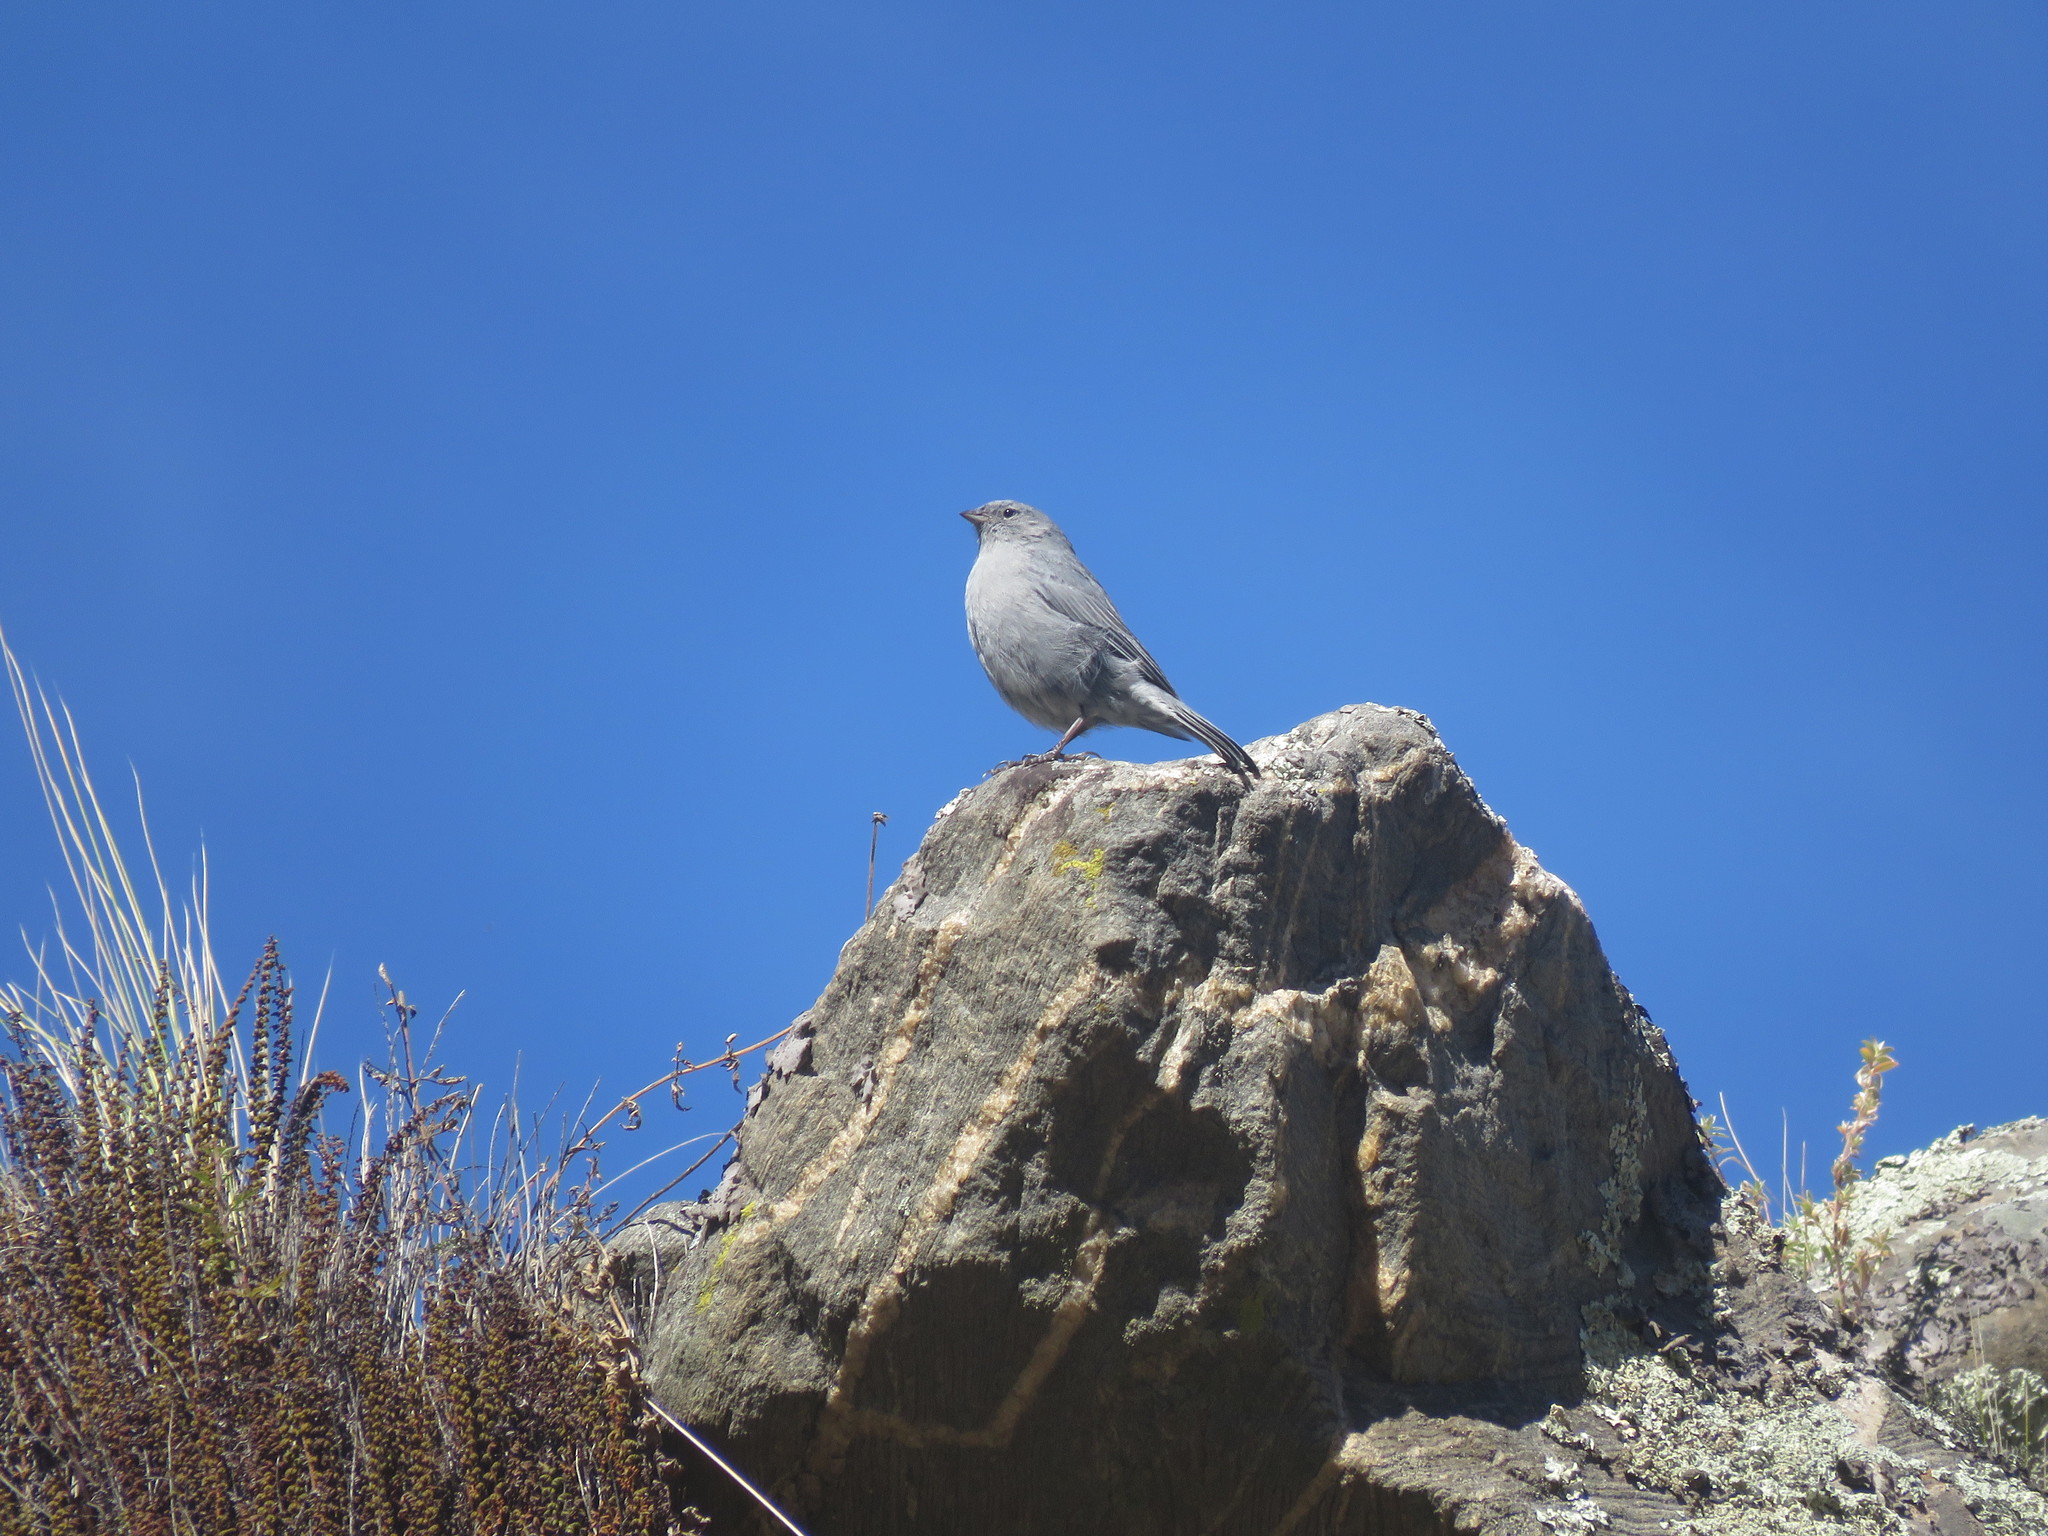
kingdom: Animalia
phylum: Chordata
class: Aves
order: Passeriformes
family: Thraupidae
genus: Geospizopsis
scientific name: Geospizopsis unicolor
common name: Plumbeous sierra-finch
